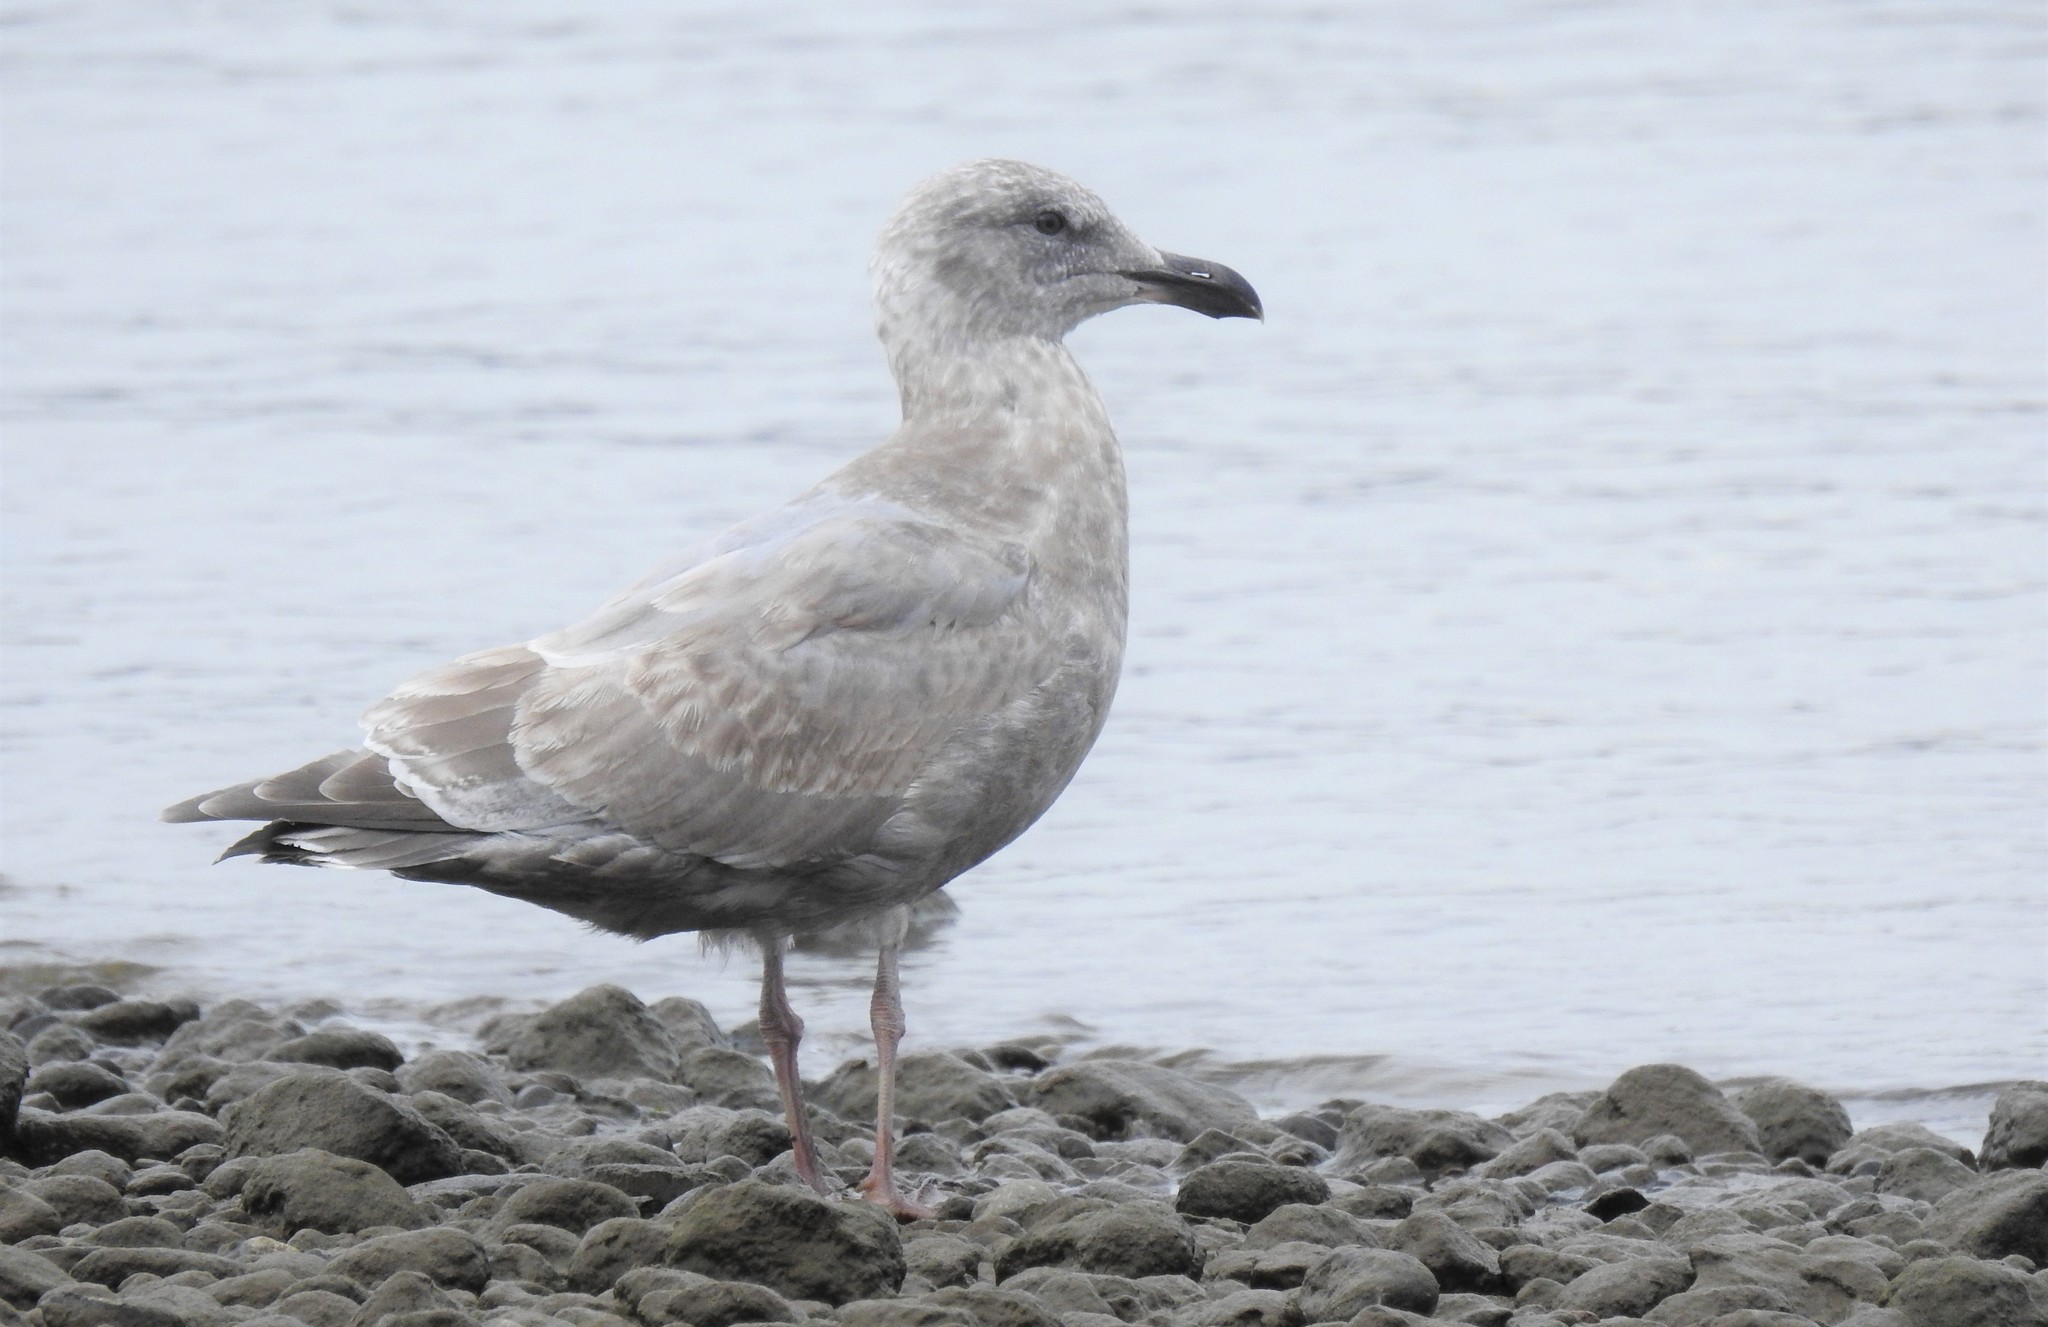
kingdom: Animalia
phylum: Chordata
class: Aves
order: Charadriiformes
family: Laridae
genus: Larus
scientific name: Larus
